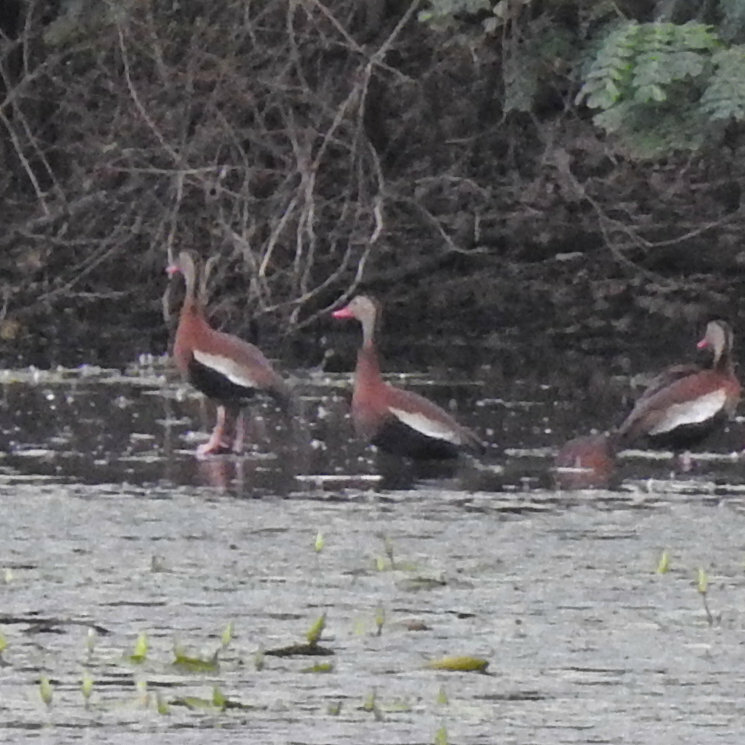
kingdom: Animalia
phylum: Chordata
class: Aves
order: Anseriformes
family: Anatidae
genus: Dendrocygna
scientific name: Dendrocygna autumnalis
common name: Black-bellied whistling duck
